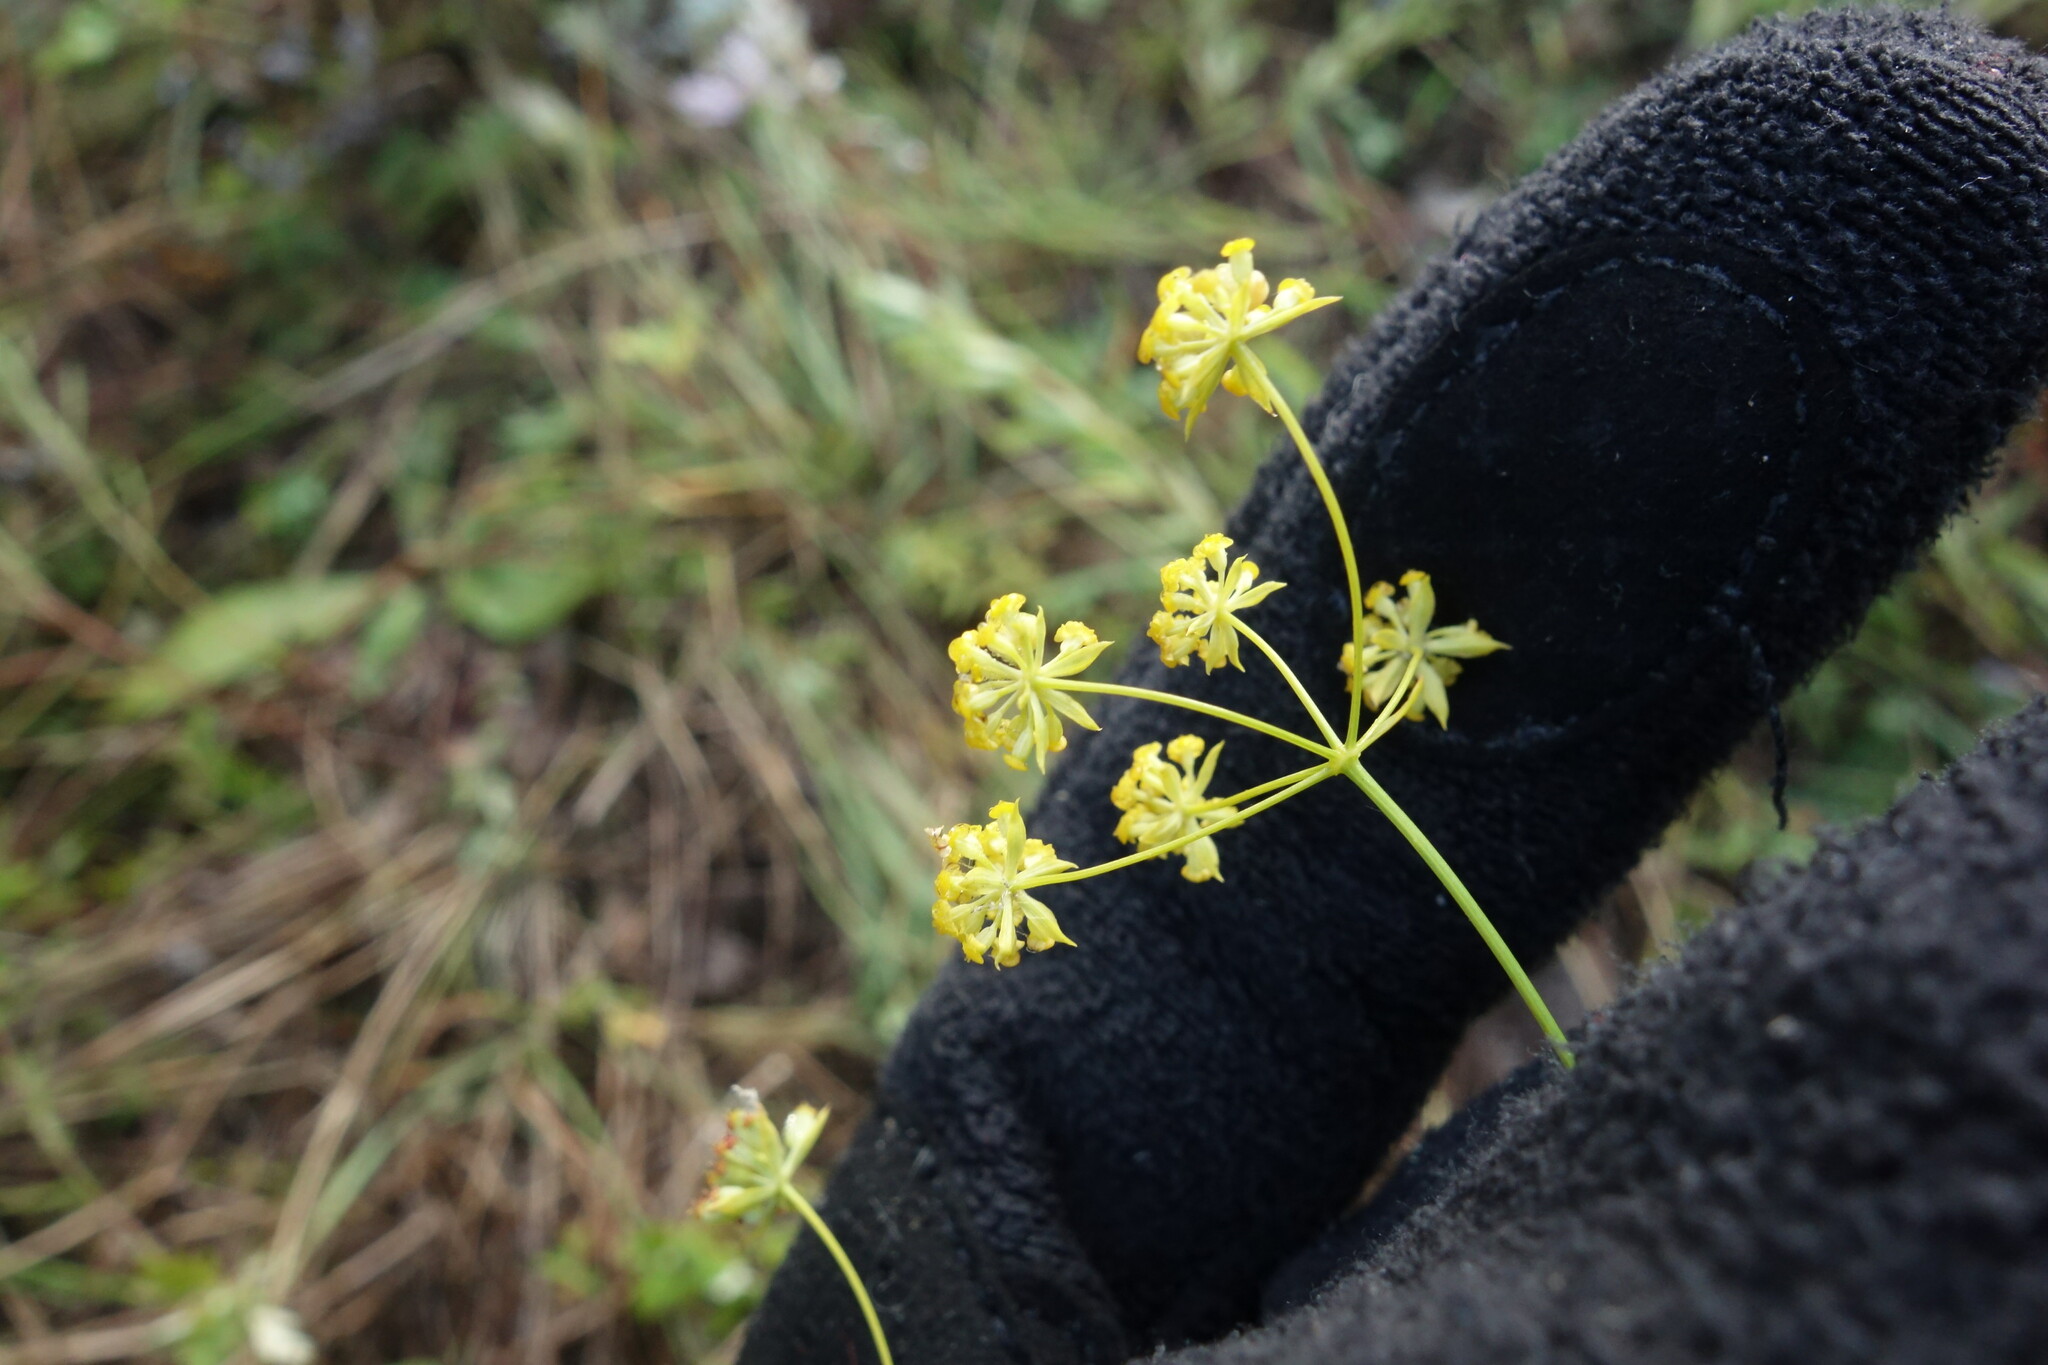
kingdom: Plantae
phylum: Tracheophyta
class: Magnoliopsida
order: Apiales
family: Apiaceae
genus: Bupleurum
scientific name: Bupleurum scorzonerifolium
